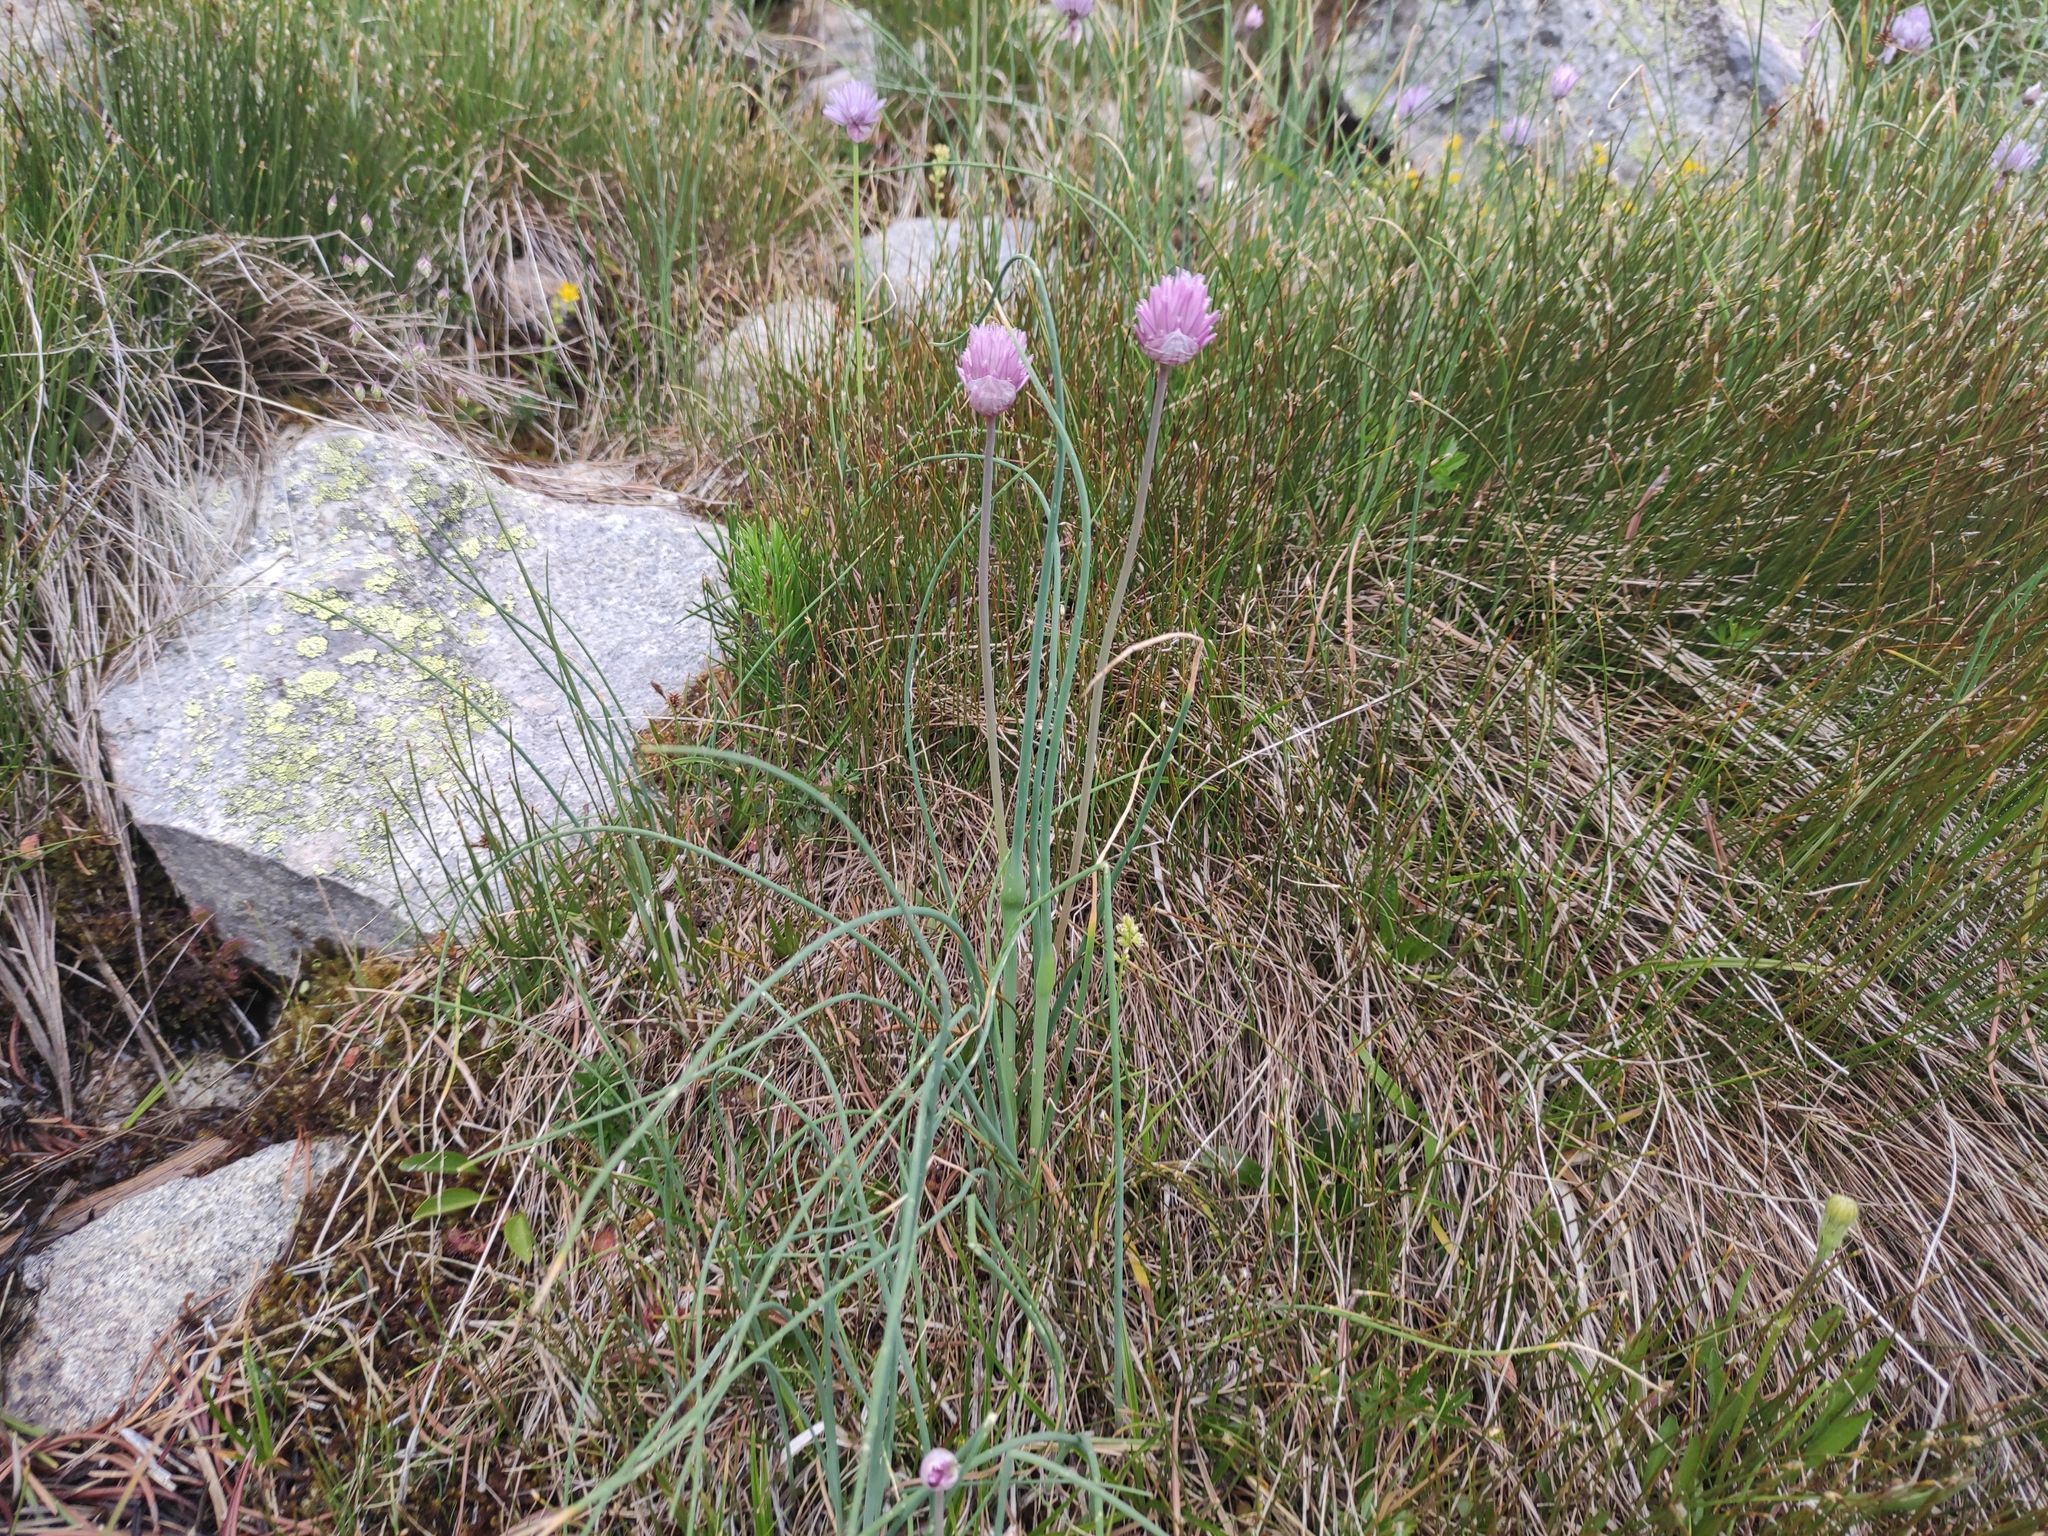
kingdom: Plantae
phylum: Tracheophyta
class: Liliopsida
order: Asparagales
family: Amaryllidaceae
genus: Allium
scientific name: Allium schoenoprasum
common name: Chives
